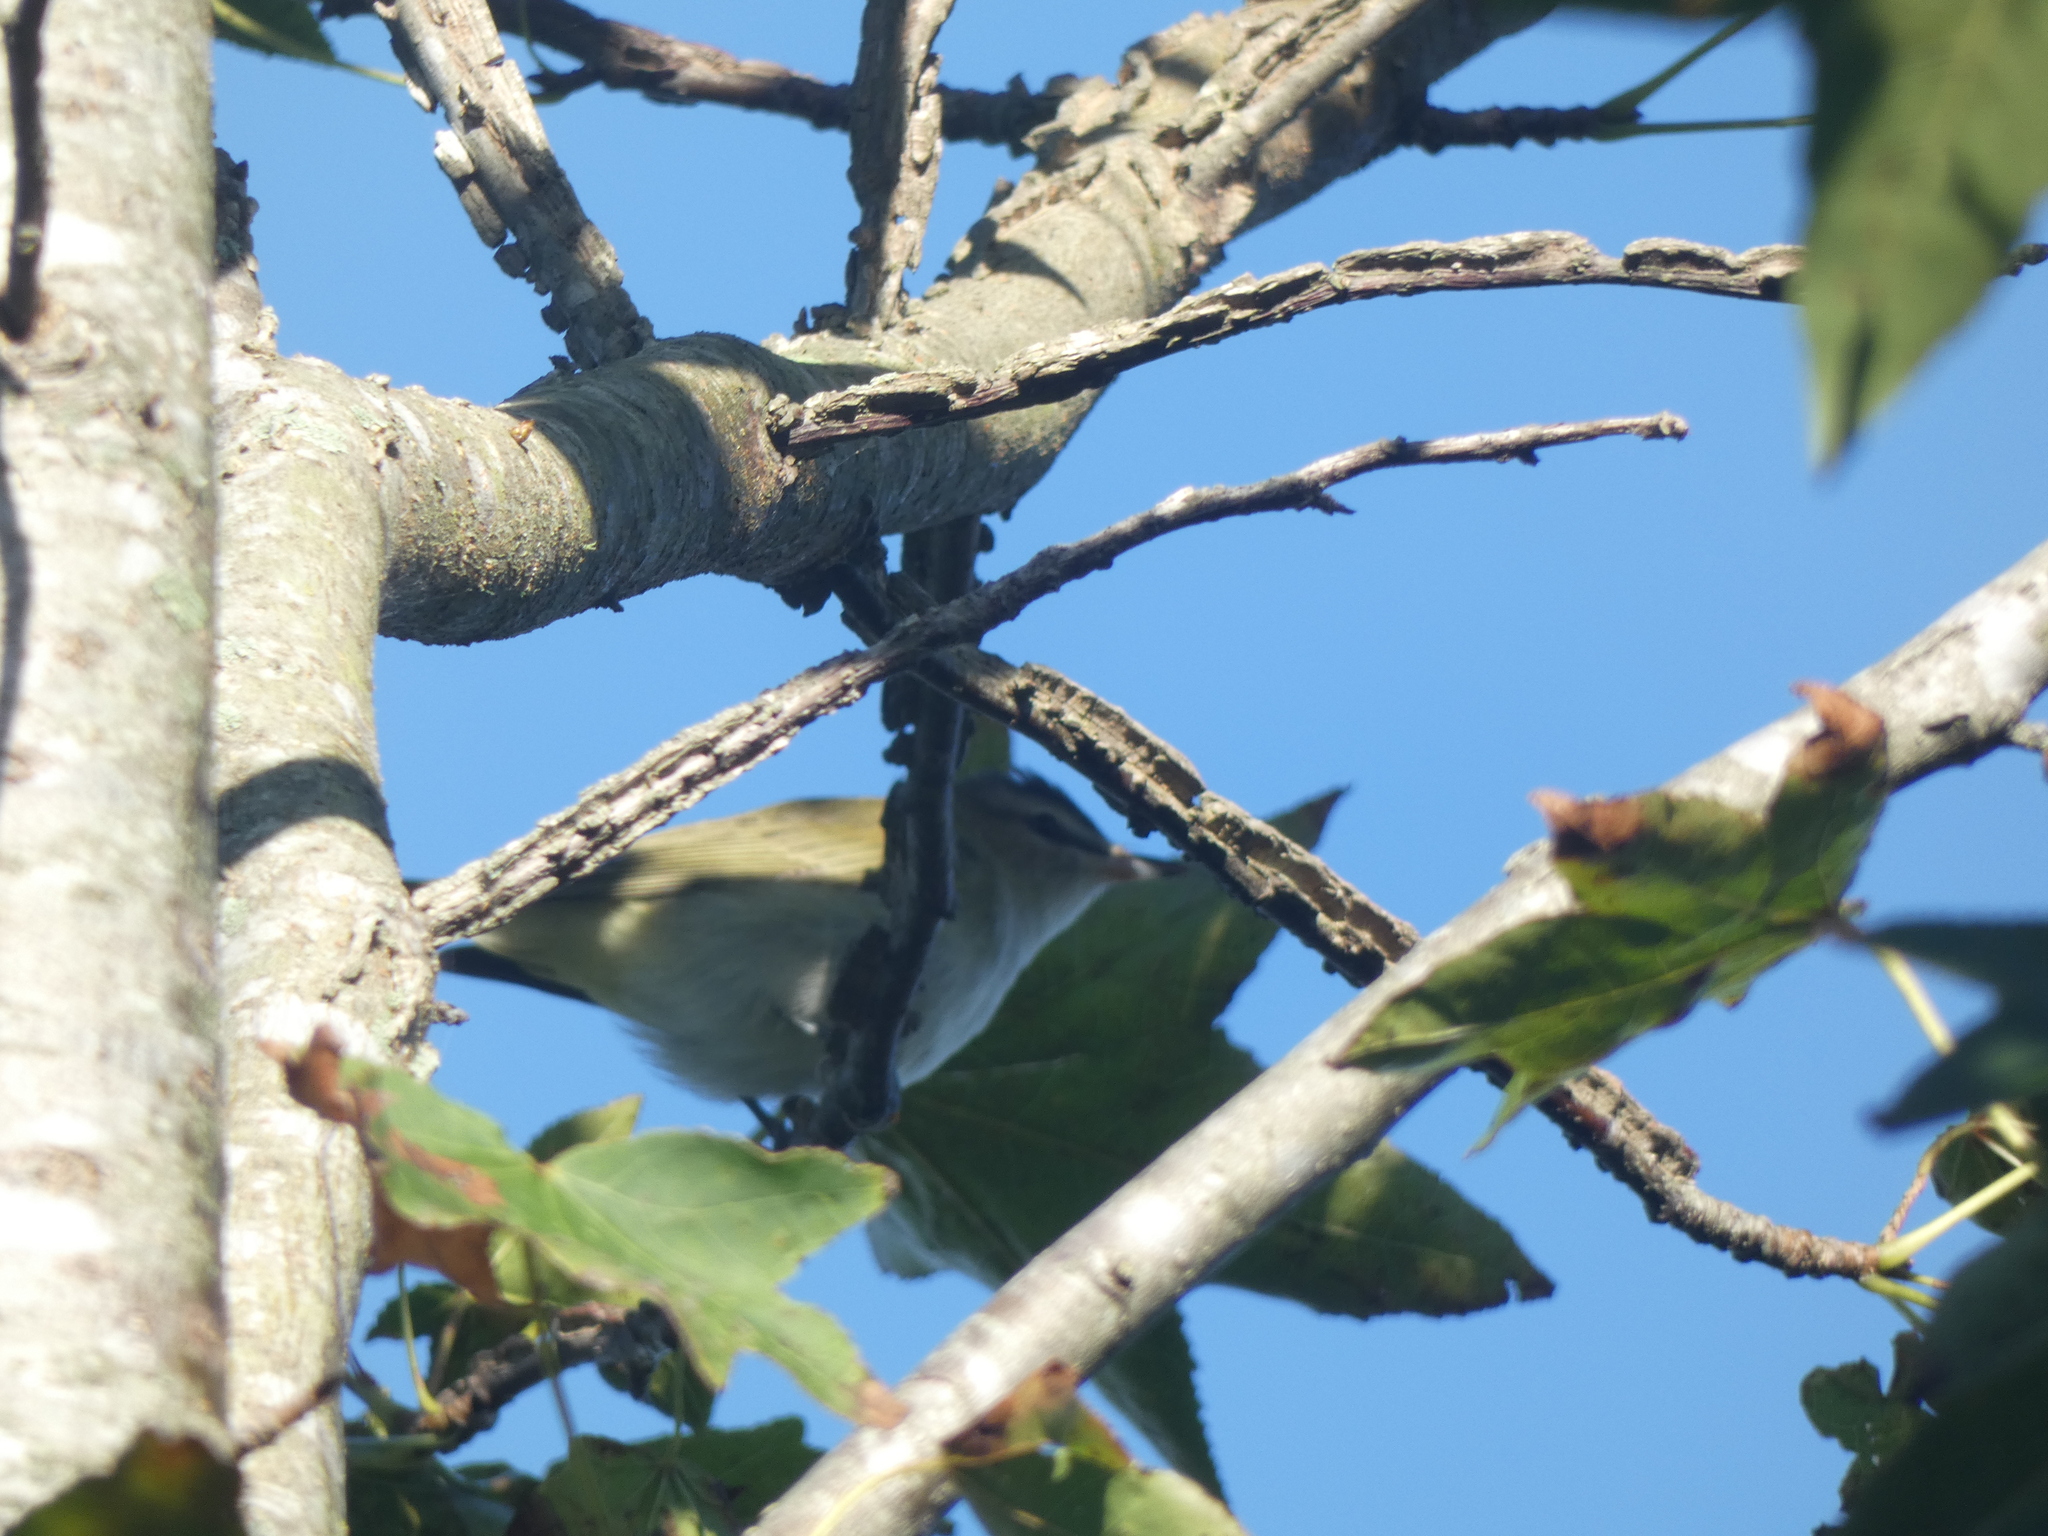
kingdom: Animalia
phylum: Chordata
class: Aves
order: Passeriformes
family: Vireonidae
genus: Vireo
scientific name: Vireo olivaceus
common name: Red-eyed vireo
